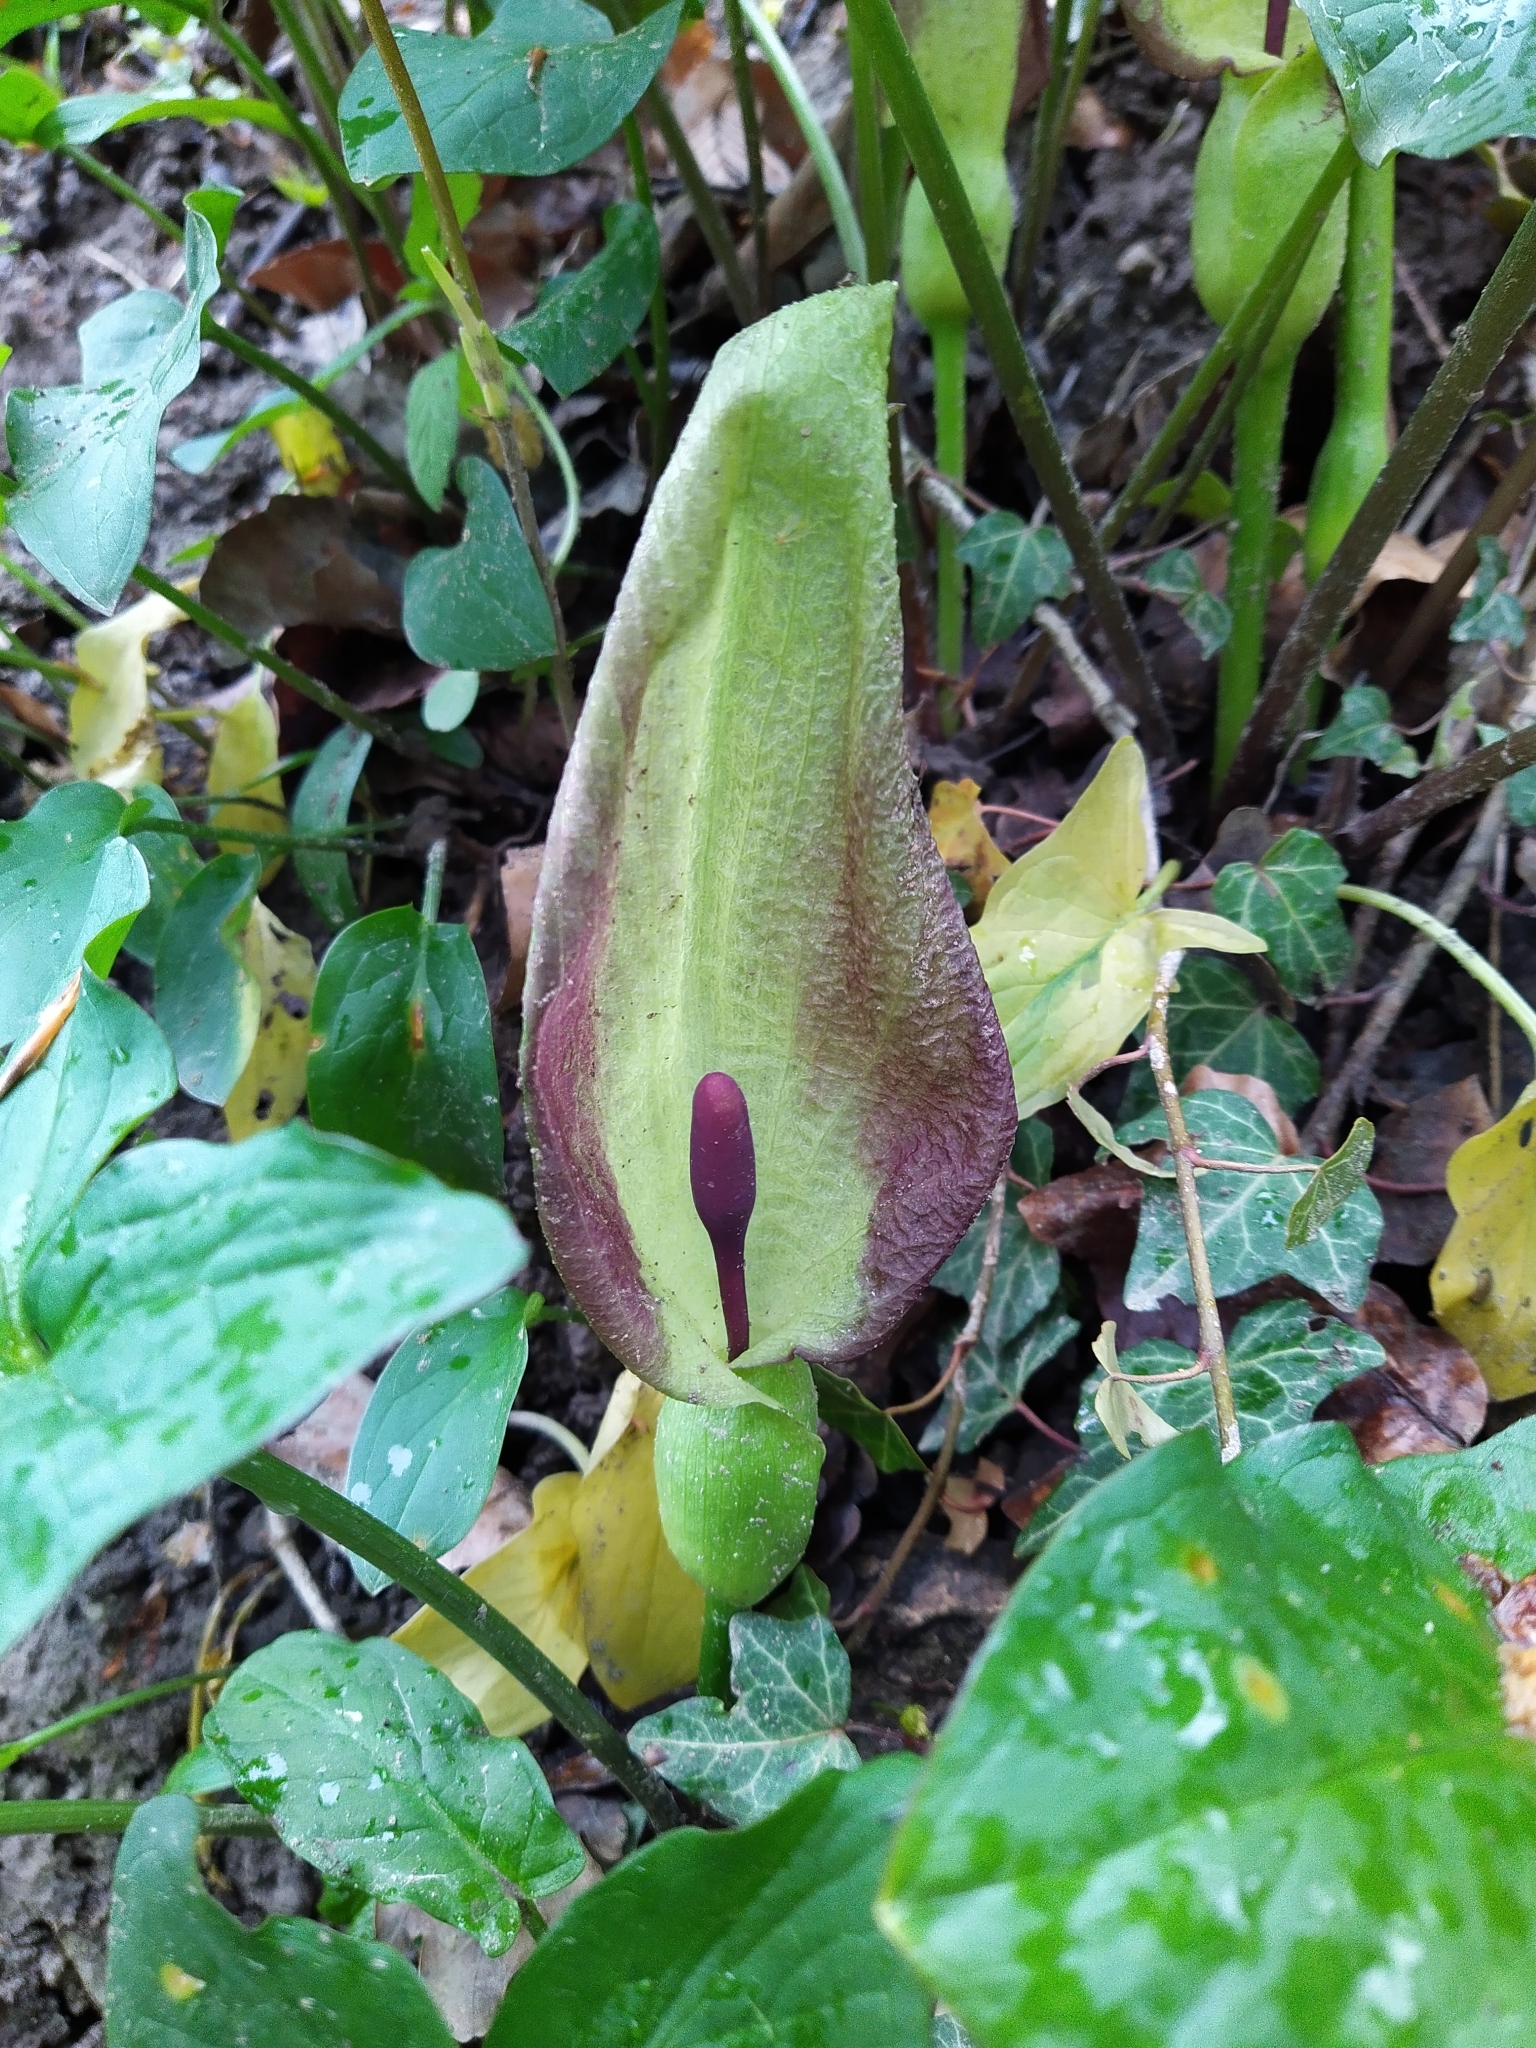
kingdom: Plantae
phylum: Tracheophyta
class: Liliopsida
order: Alismatales
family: Araceae
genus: Arum
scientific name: Arum maculatum
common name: Lords-and-ladies
